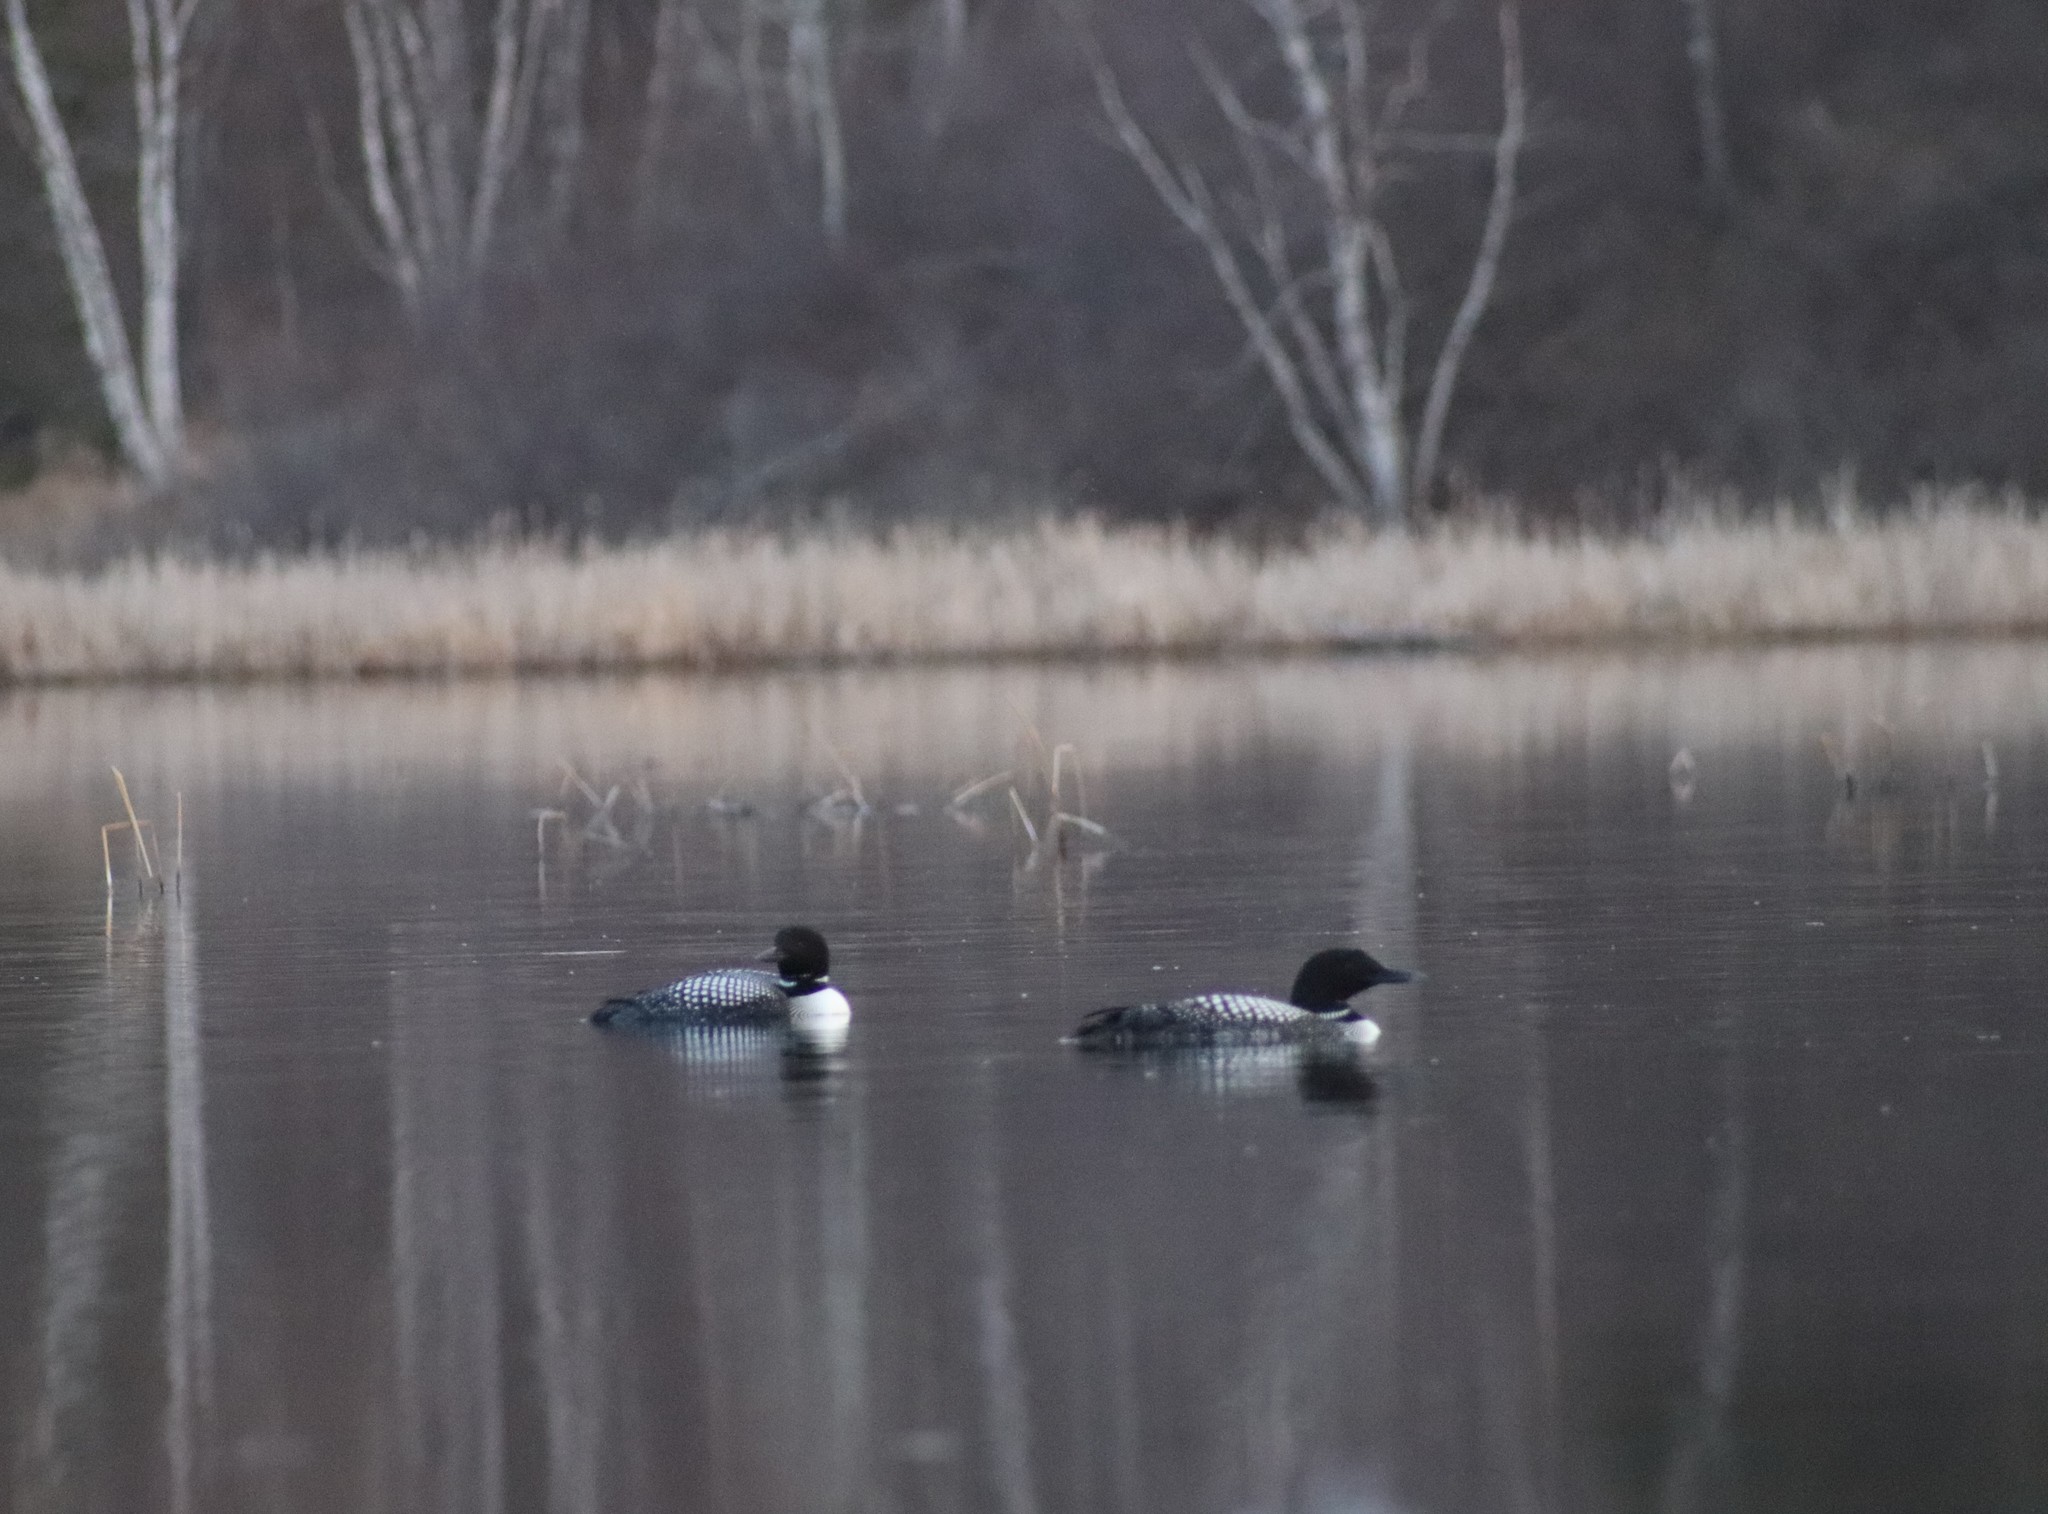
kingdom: Animalia
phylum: Chordata
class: Aves
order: Gaviiformes
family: Gaviidae
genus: Gavia
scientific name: Gavia immer
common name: Common loon
